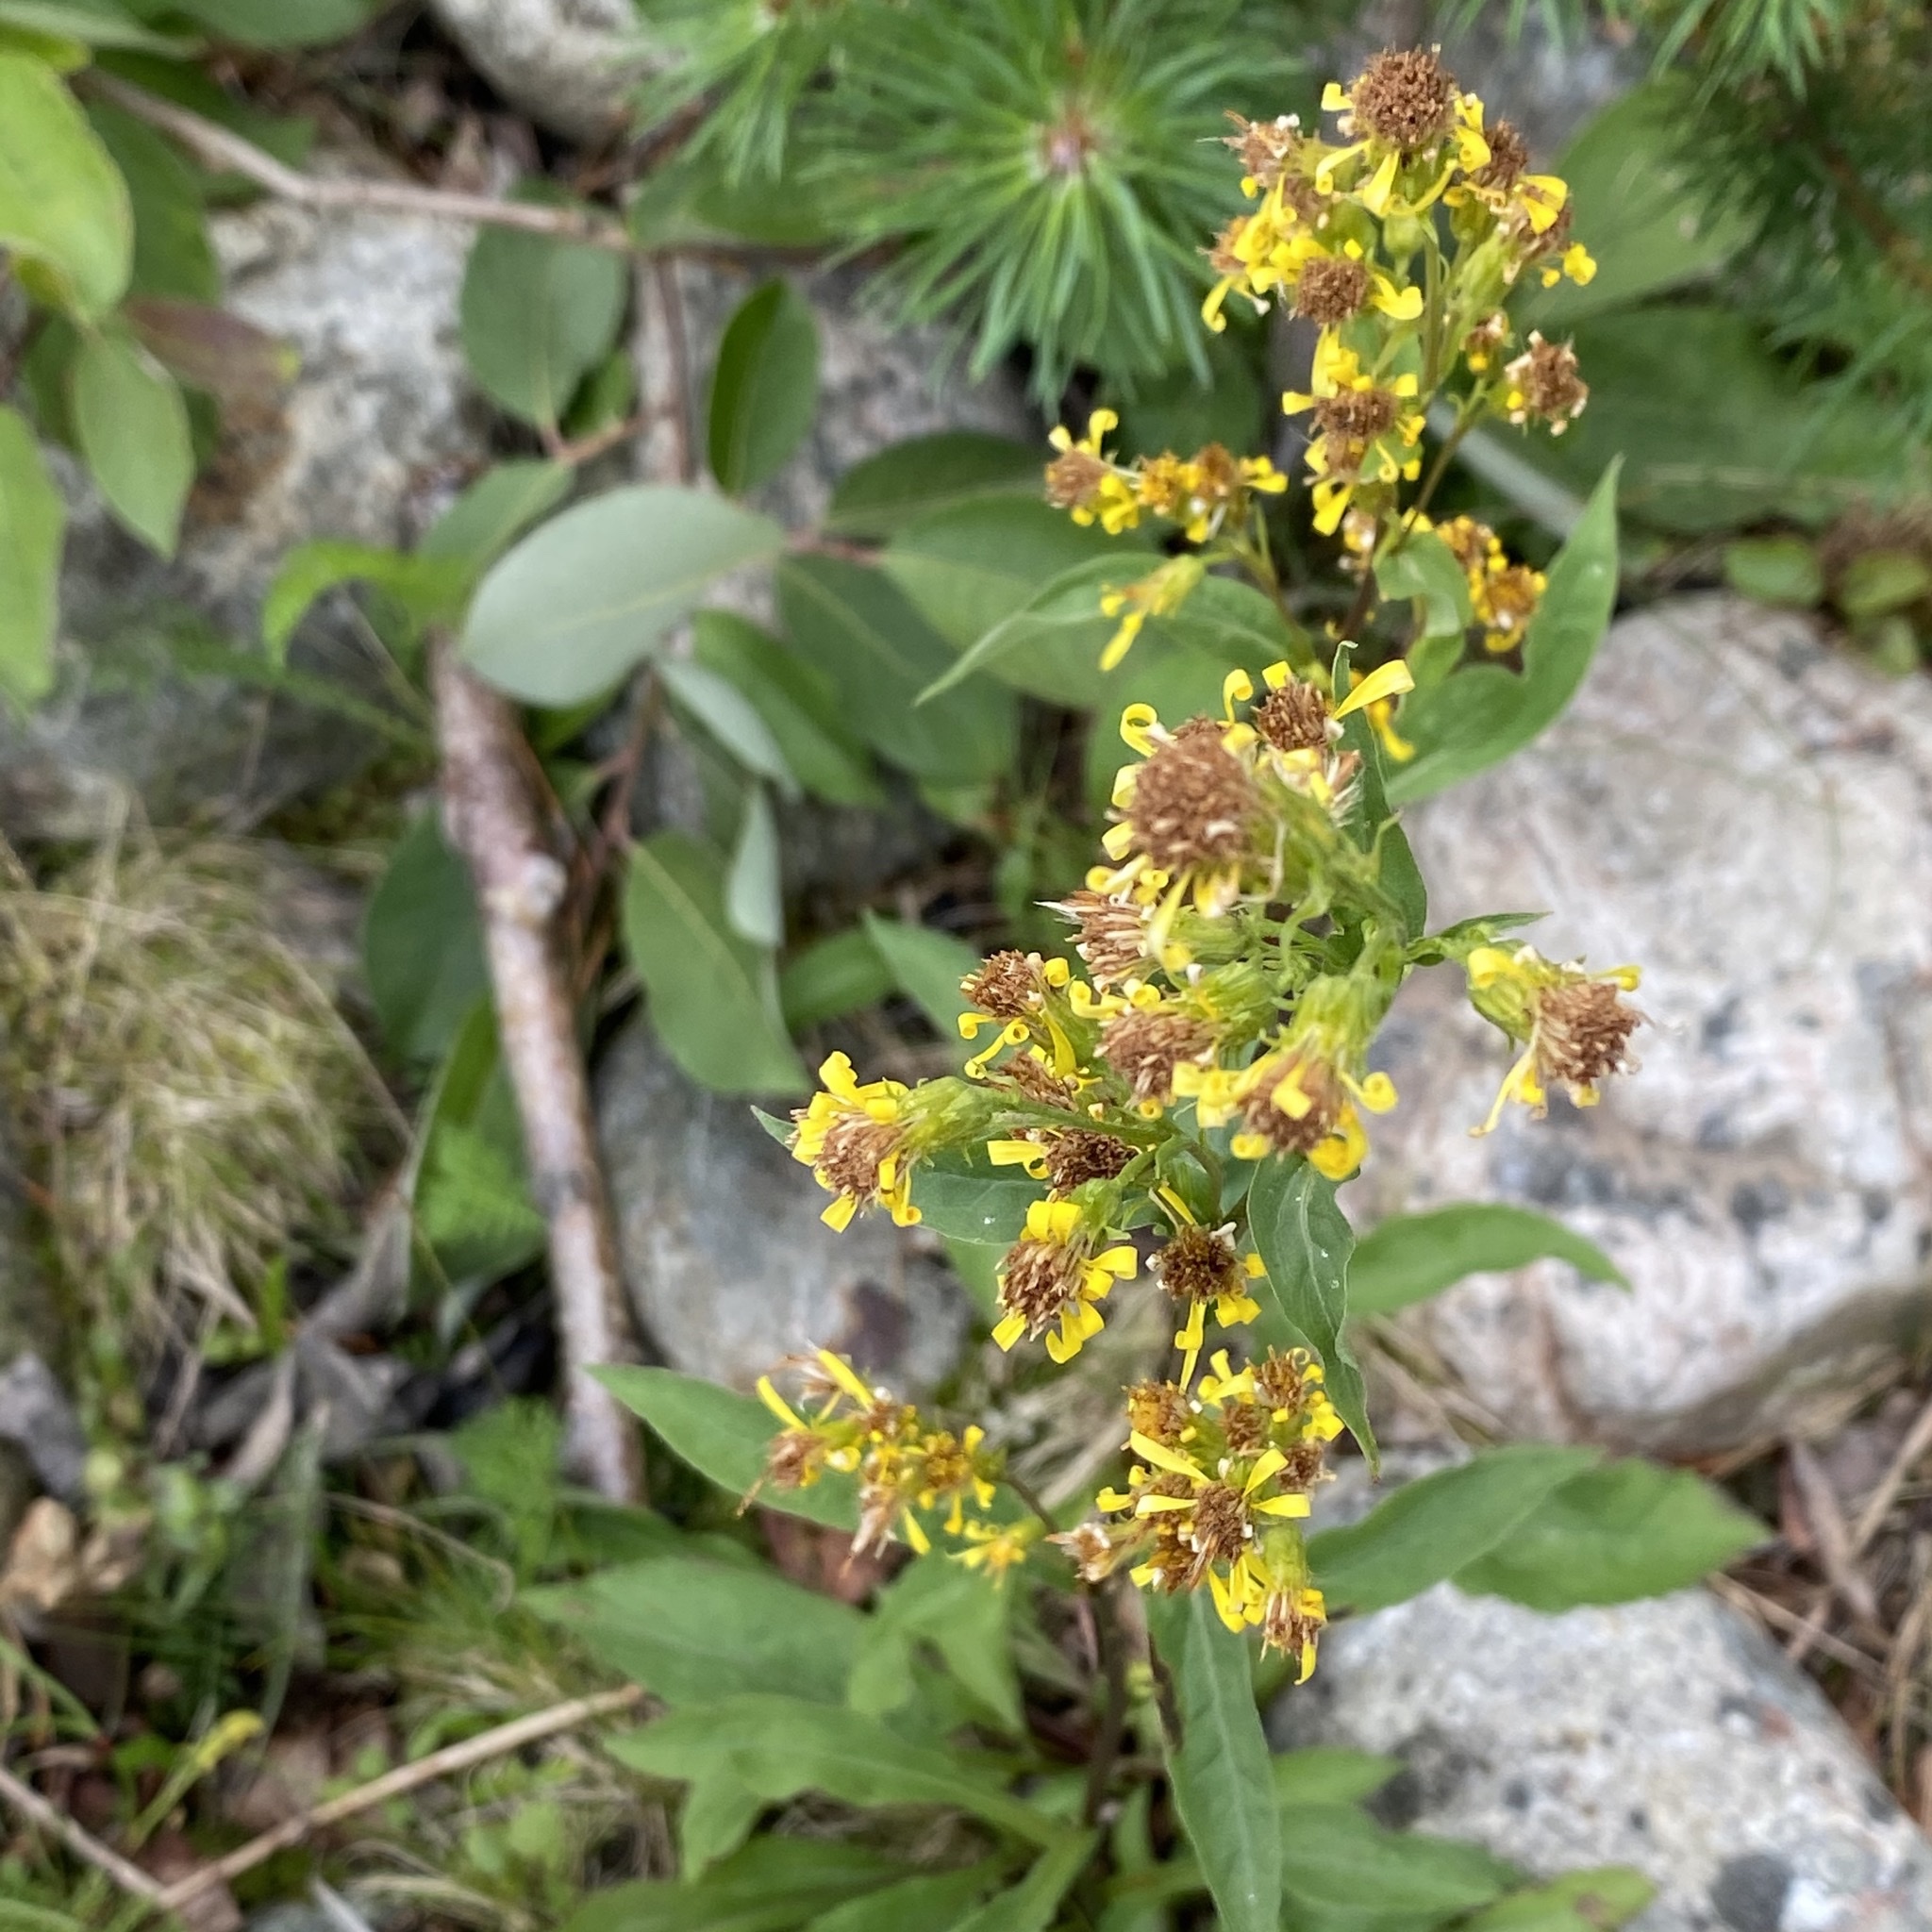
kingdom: Plantae
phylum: Tracheophyta
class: Magnoliopsida
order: Asterales
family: Asteraceae
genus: Solidago
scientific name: Solidago virgaurea
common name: Goldenrod
